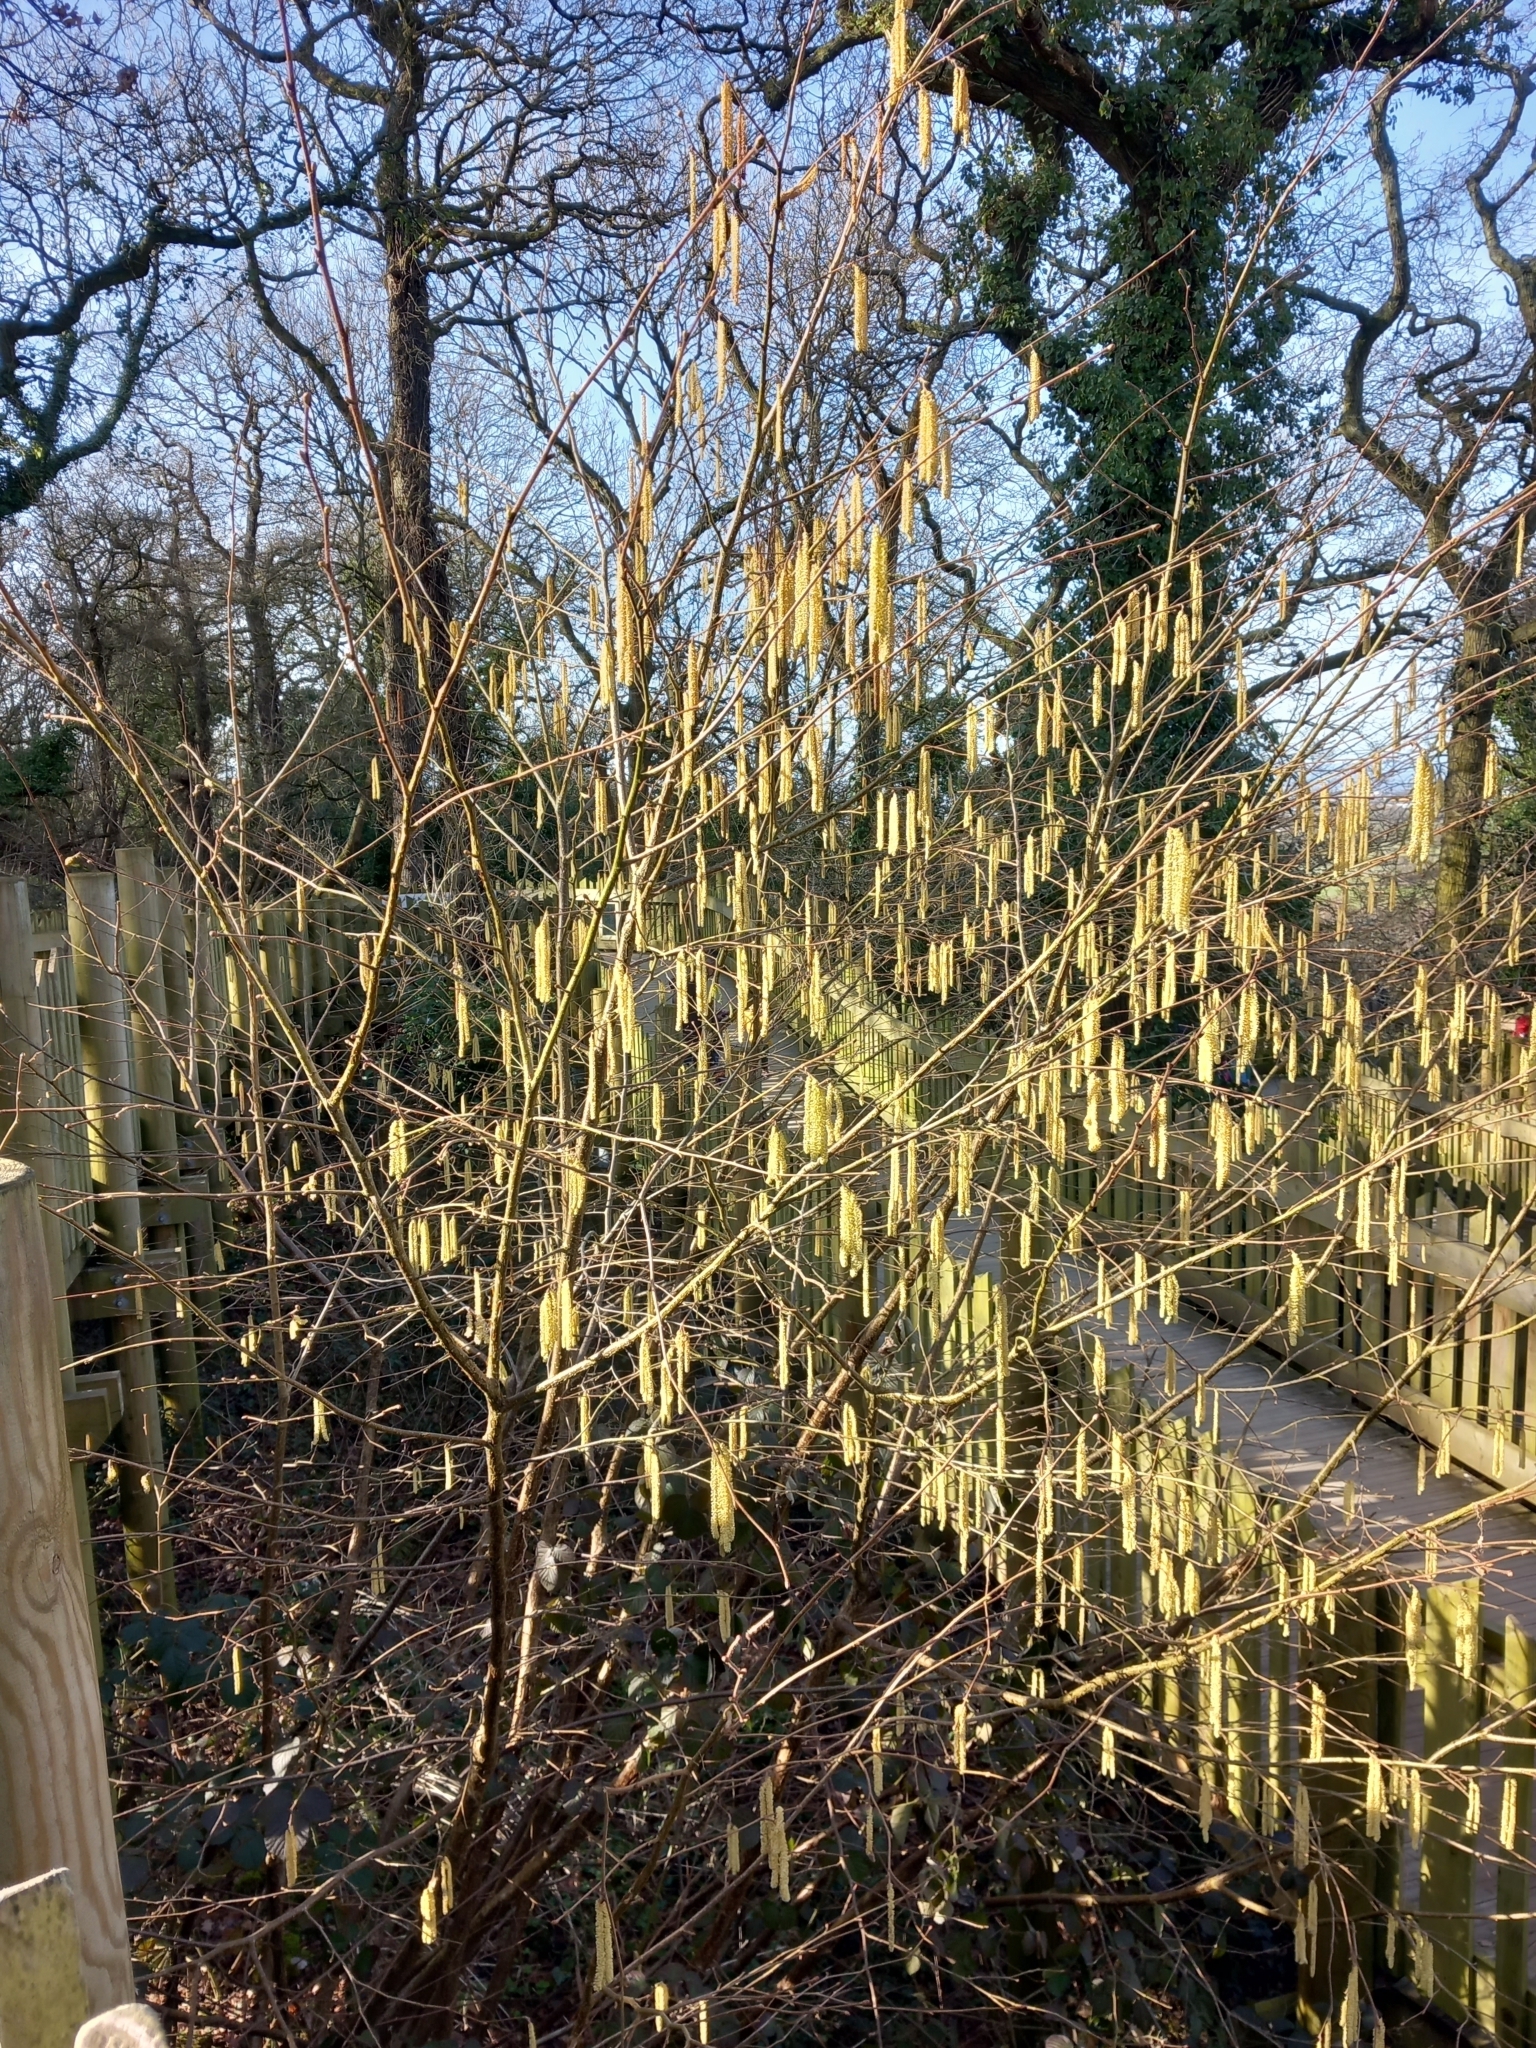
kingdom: Plantae
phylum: Tracheophyta
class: Magnoliopsida
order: Fagales
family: Betulaceae
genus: Corylus
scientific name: Corylus avellana
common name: European hazel
